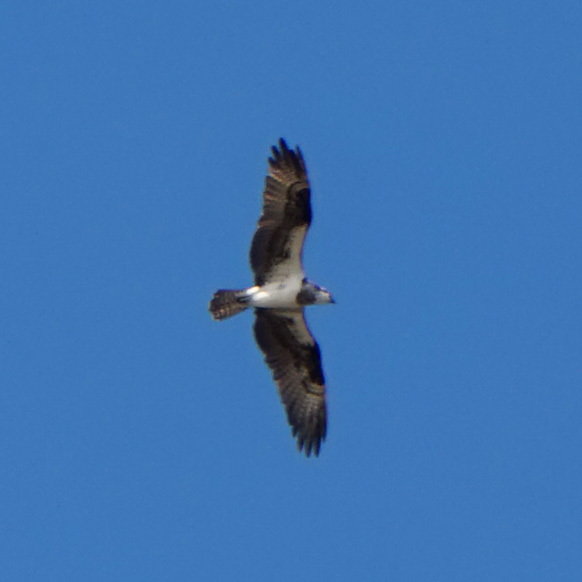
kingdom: Animalia
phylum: Chordata
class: Aves
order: Accipitriformes
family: Pandionidae
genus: Pandion
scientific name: Pandion haliaetus
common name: Osprey
